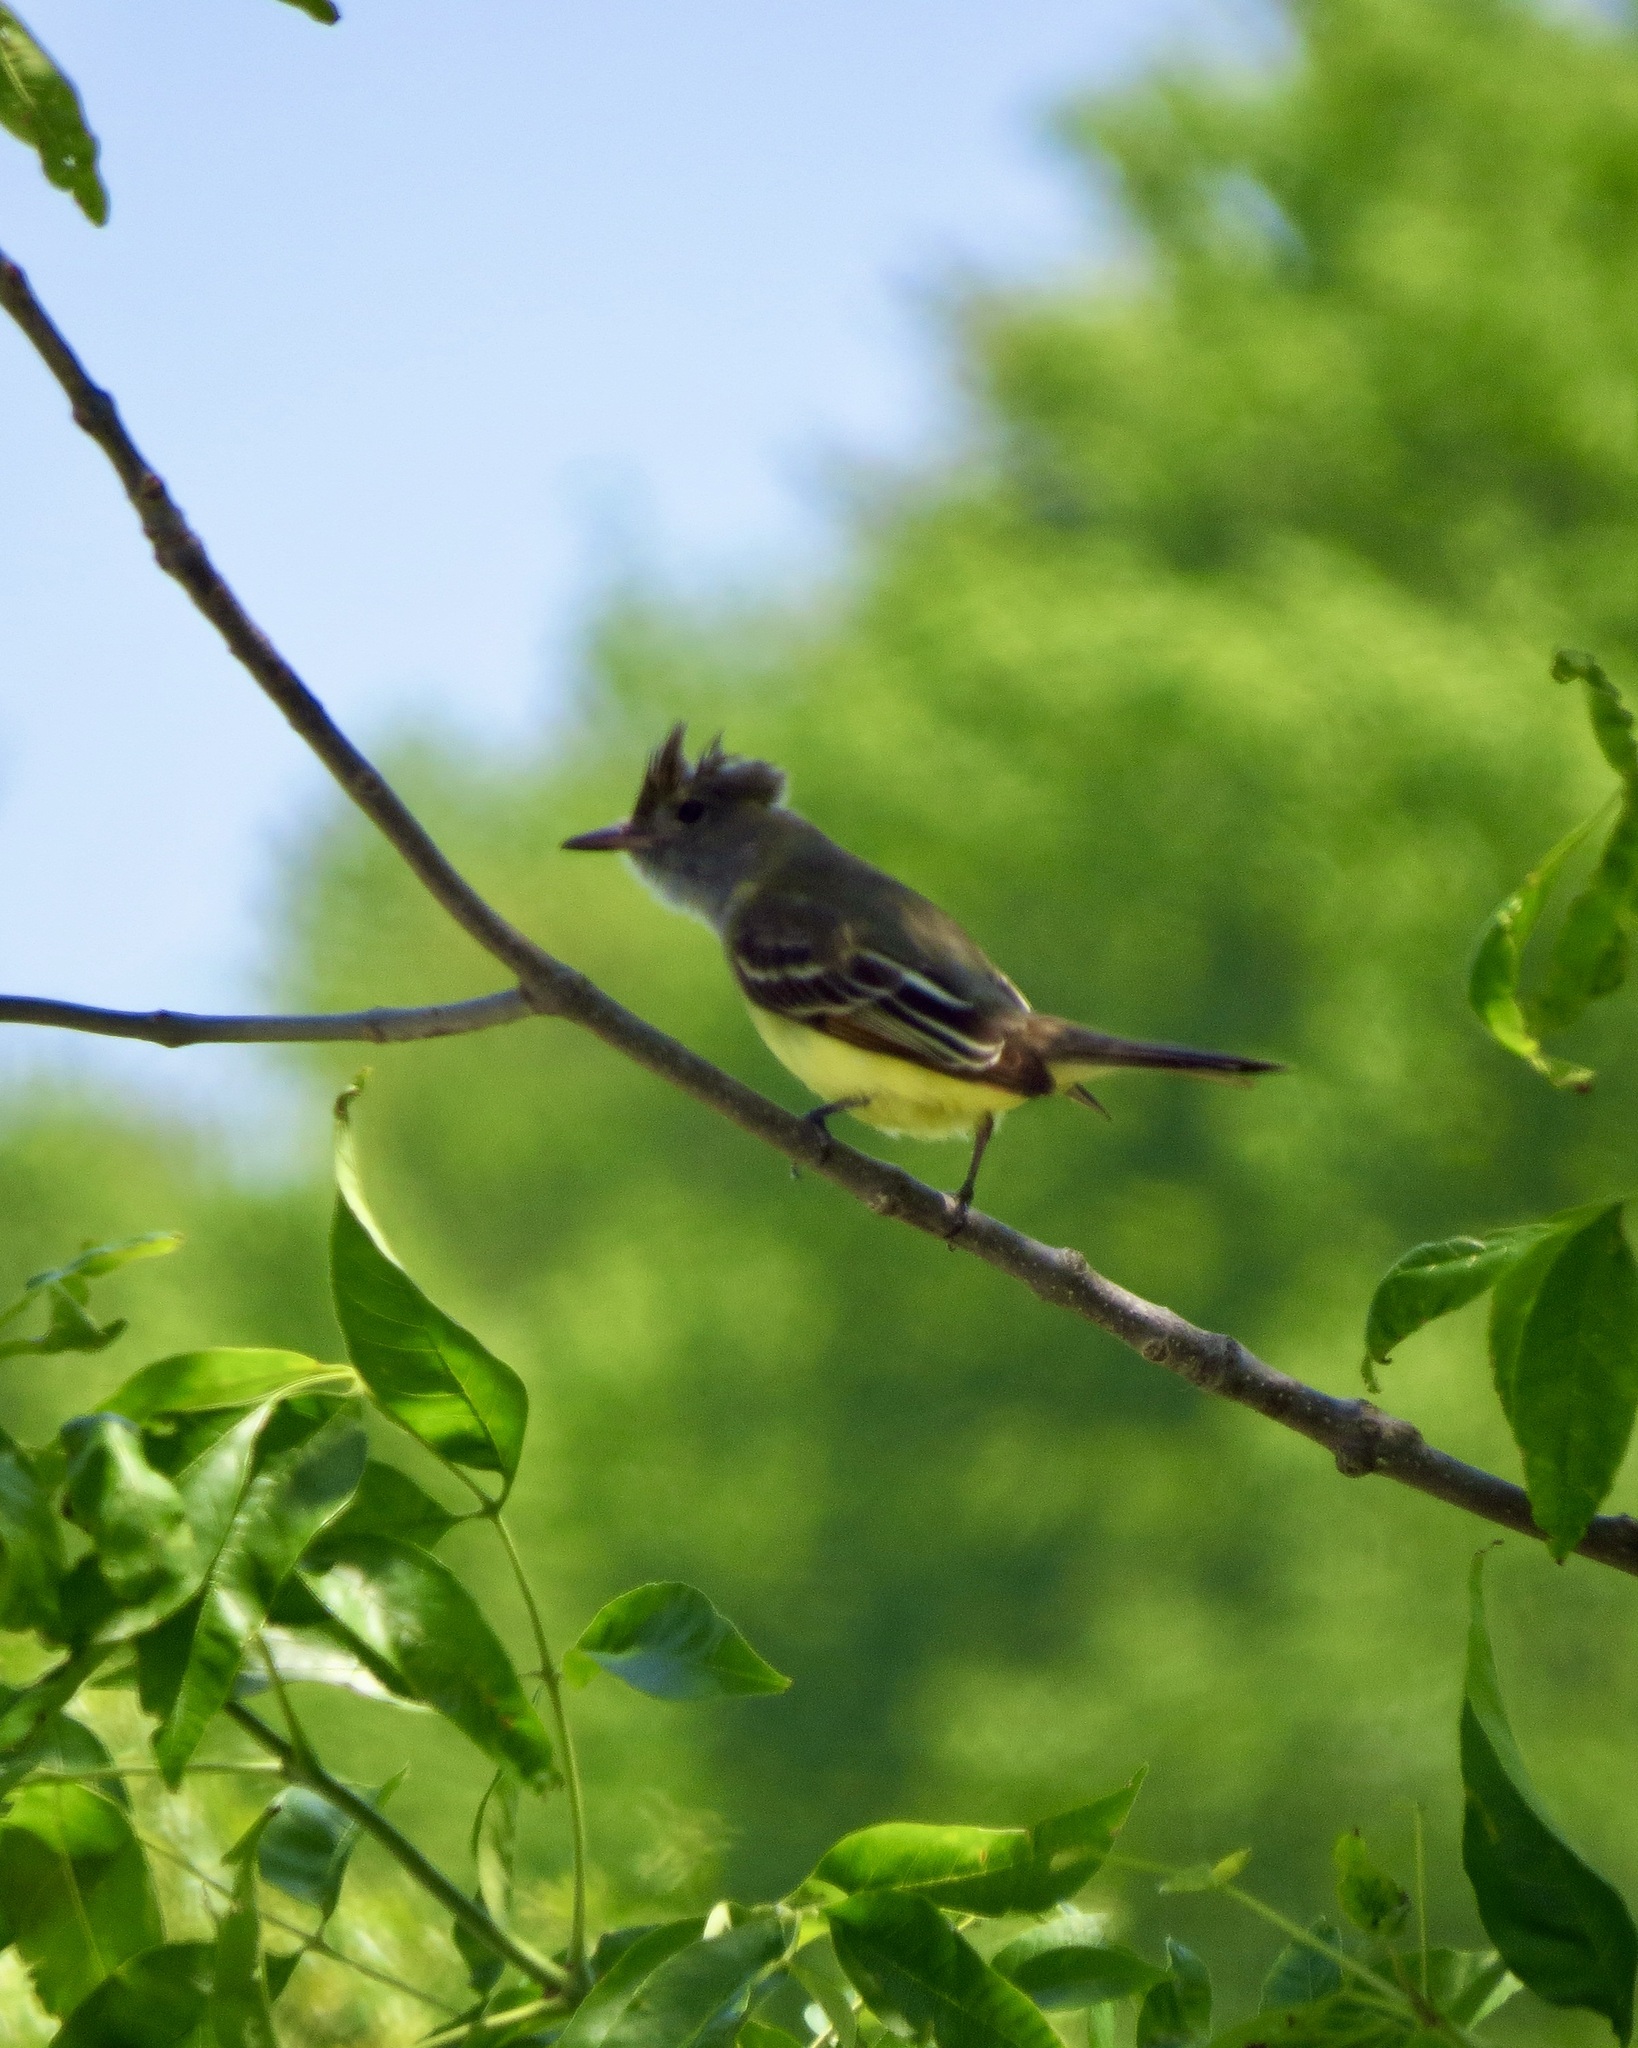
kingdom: Animalia
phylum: Chordata
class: Aves
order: Passeriformes
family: Tyrannidae
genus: Myiarchus
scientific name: Myiarchus crinitus
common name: Great crested flycatcher
